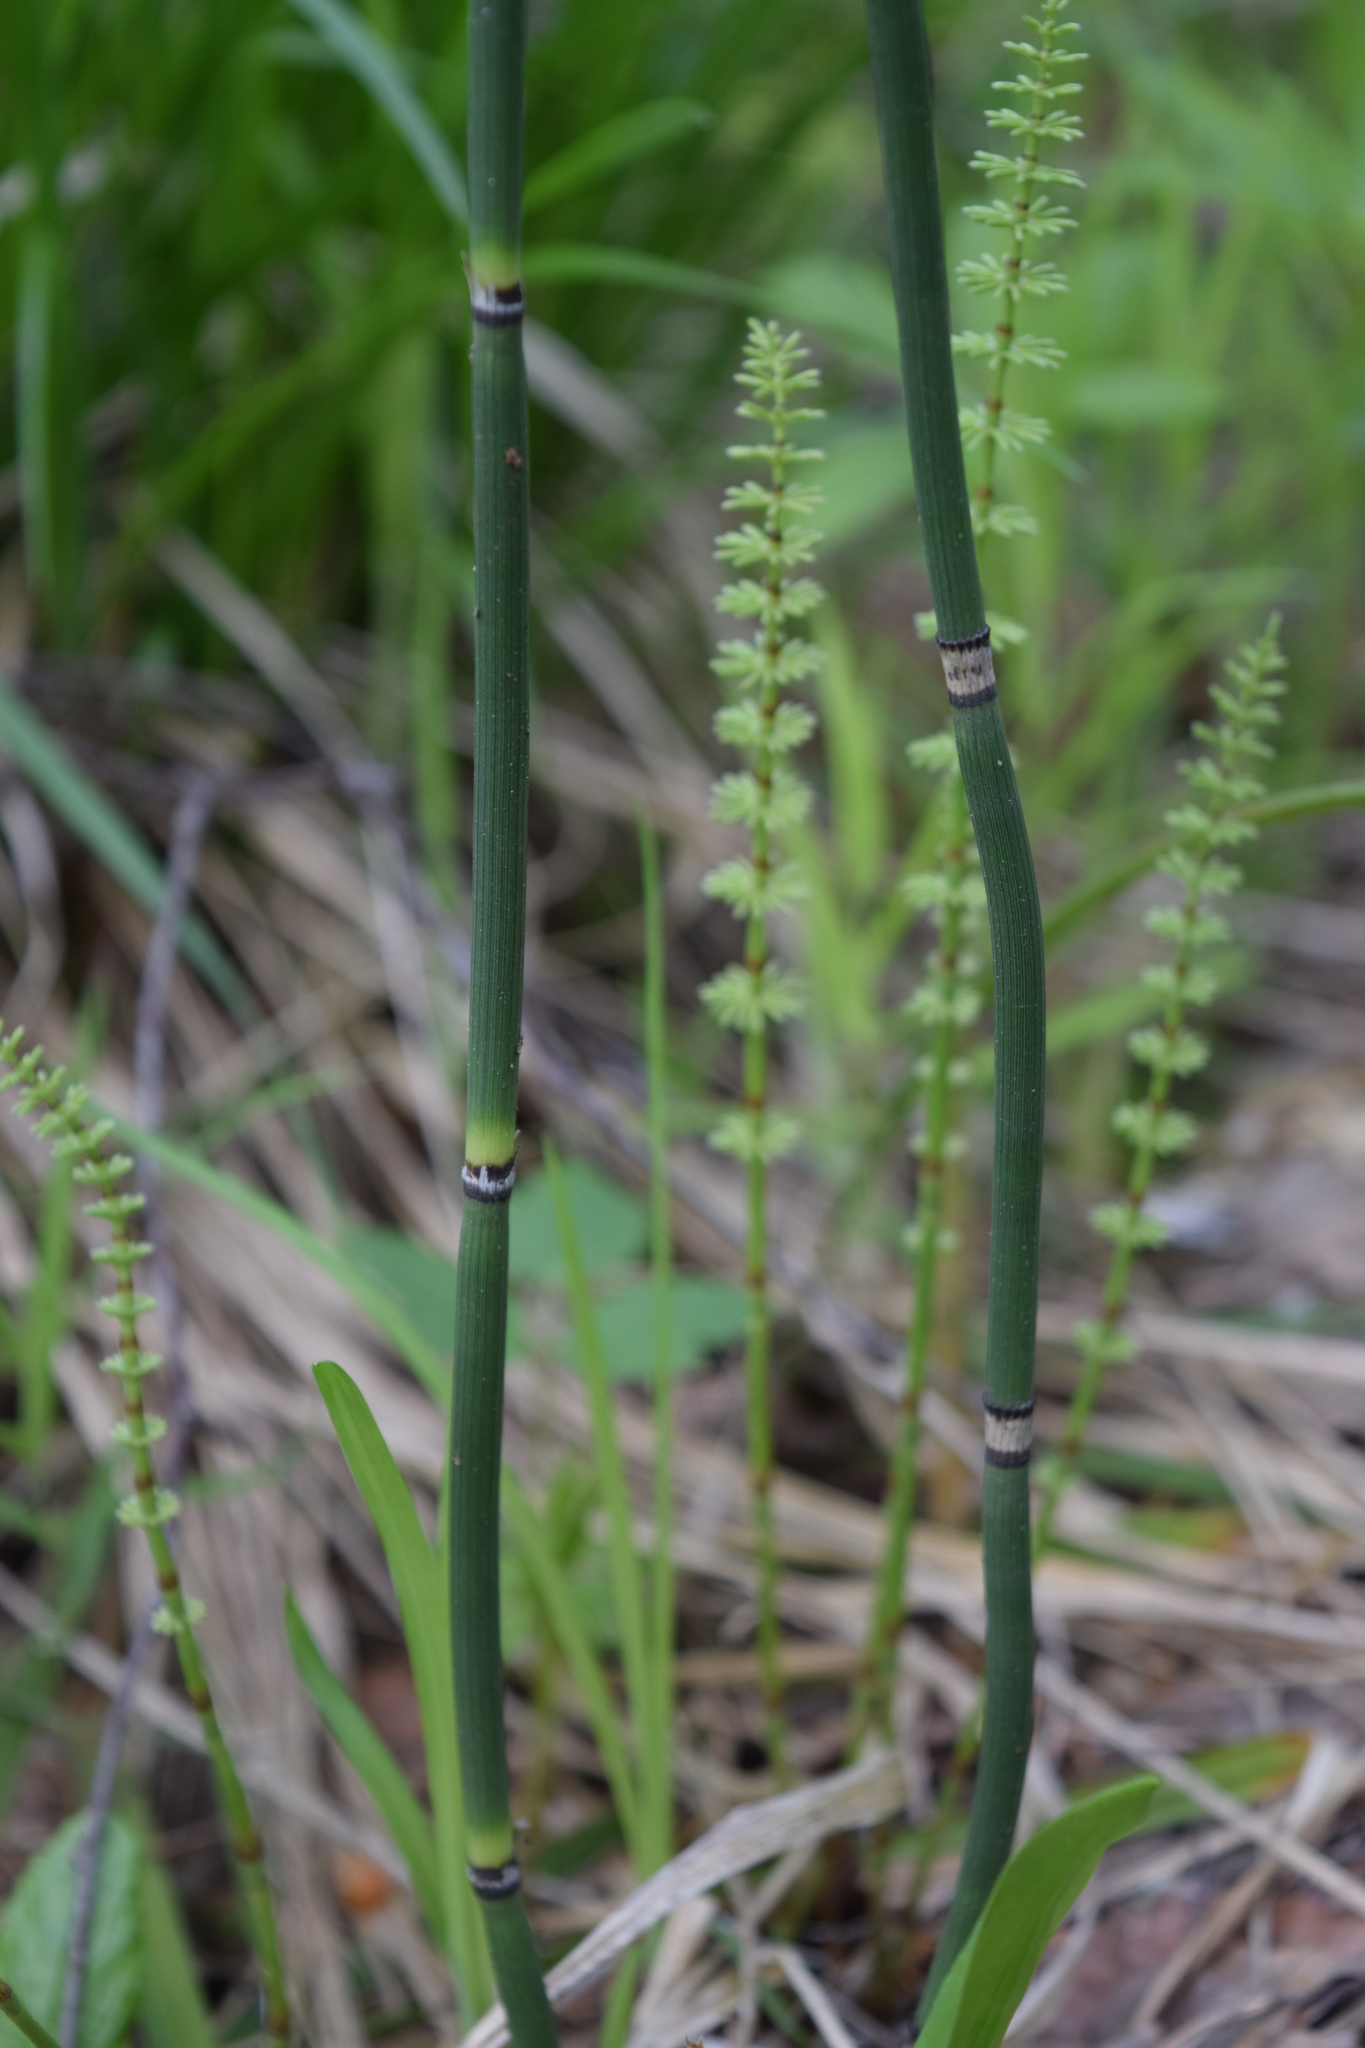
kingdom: Plantae
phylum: Tracheophyta
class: Polypodiopsida
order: Equisetales
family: Equisetaceae
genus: Equisetum
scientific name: Equisetum hyemale
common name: Rough horsetail
